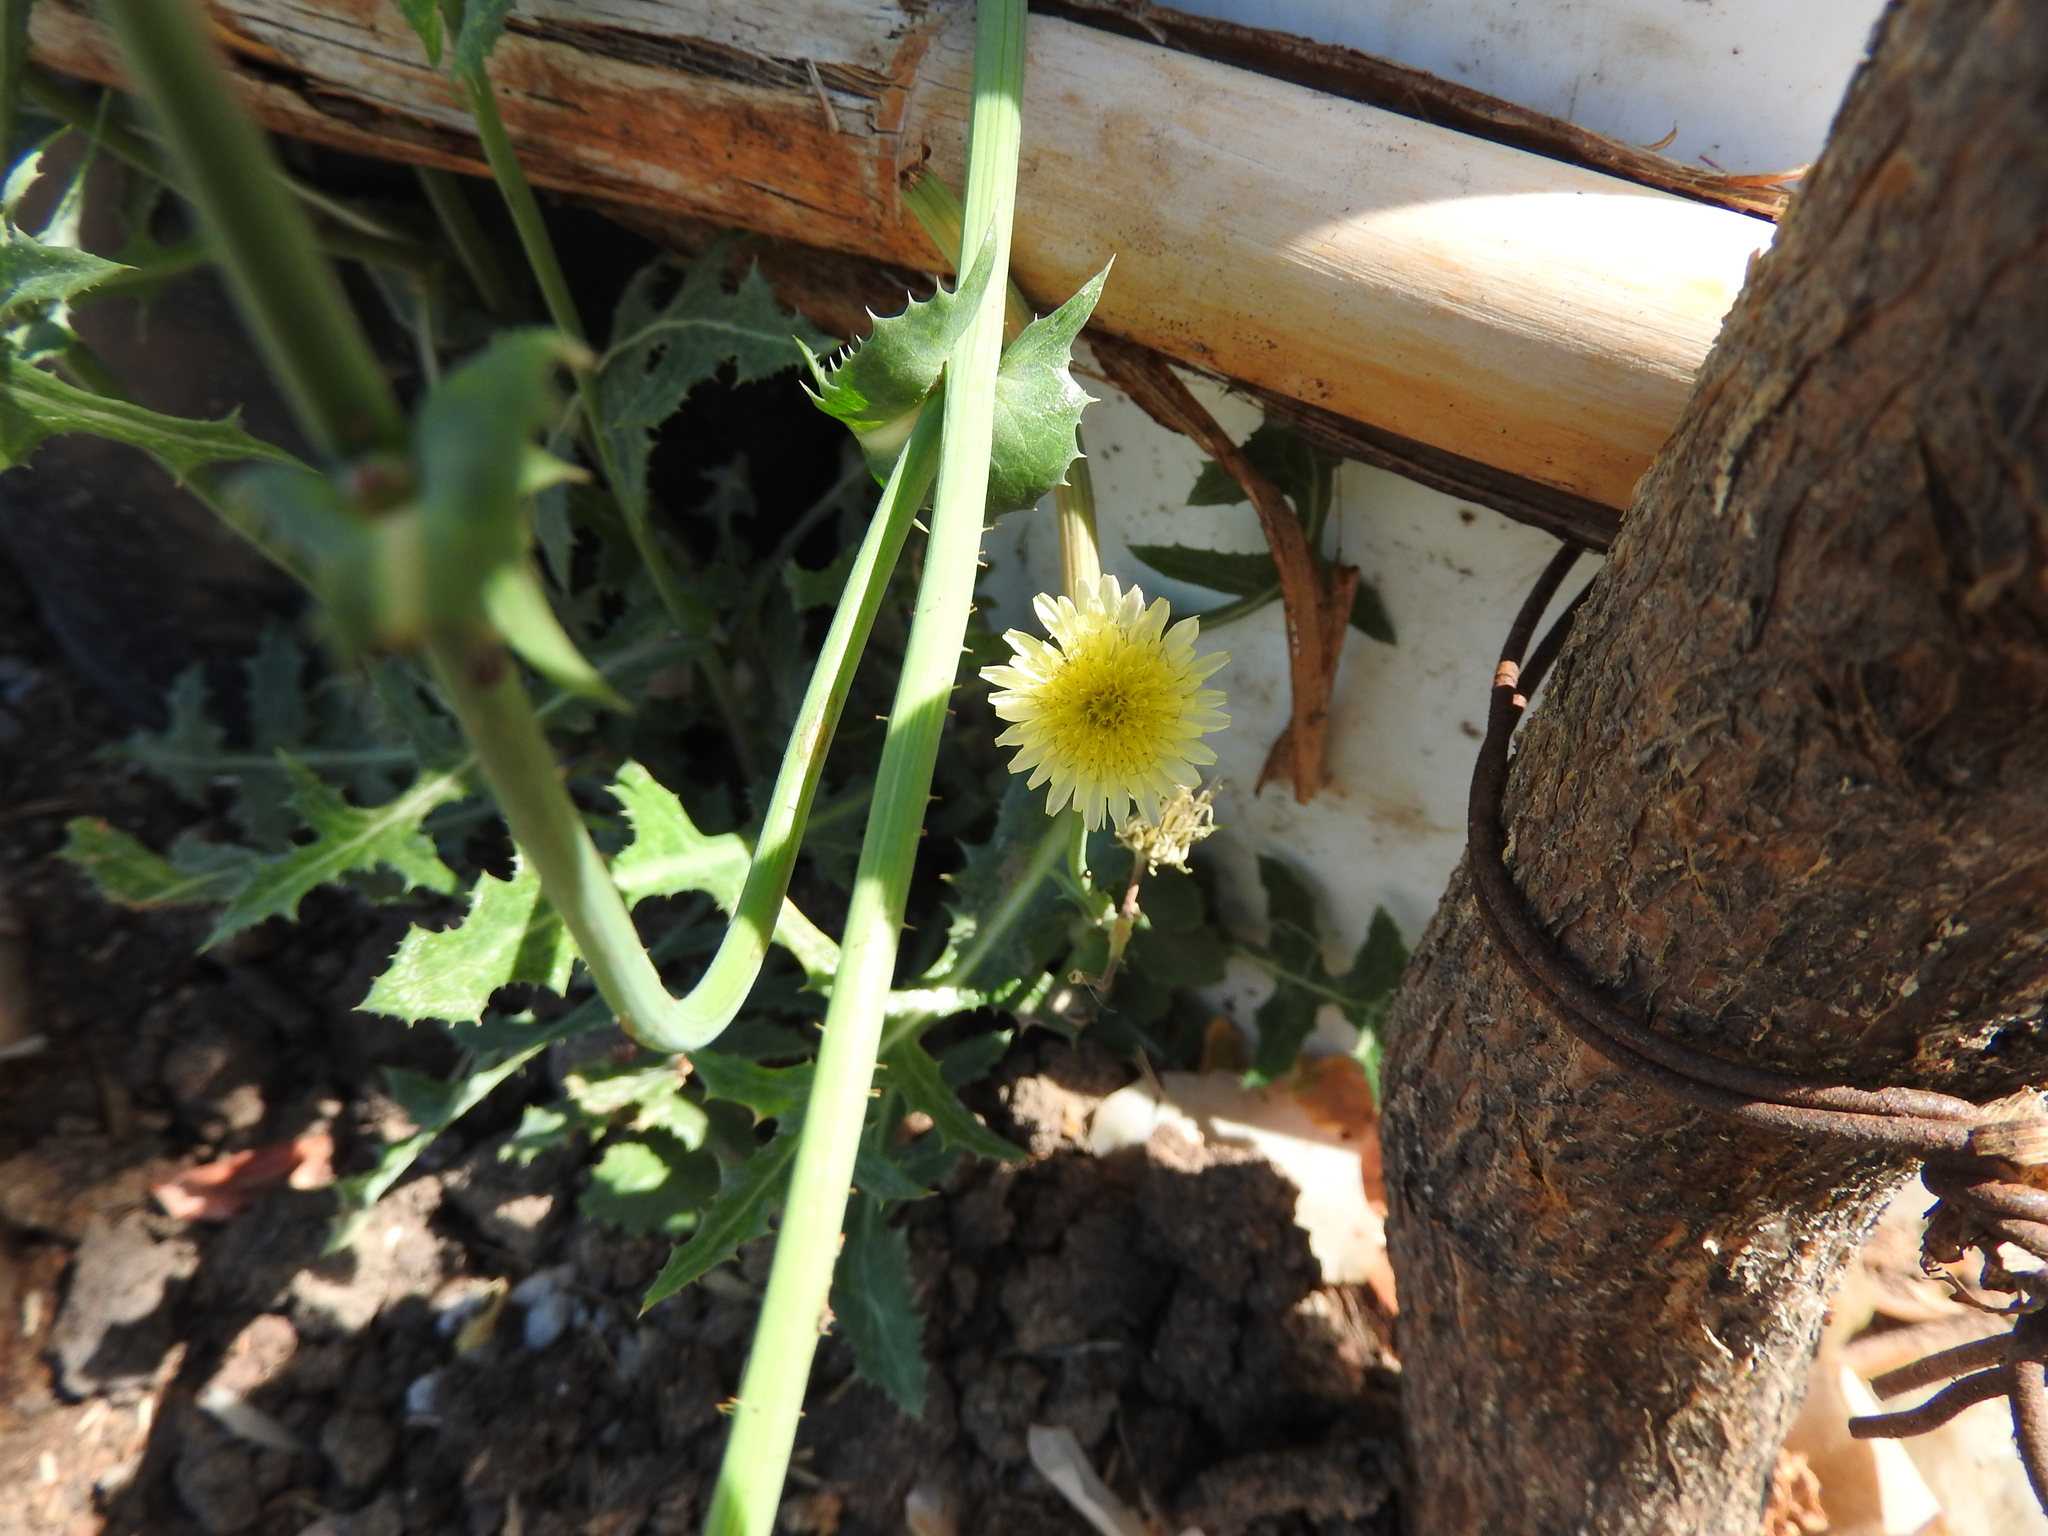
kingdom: Plantae
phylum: Tracheophyta
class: Magnoliopsida
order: Asterales
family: Asteraceae
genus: Sonchus
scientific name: Sonchus oleraceus
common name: Common sowthistle
